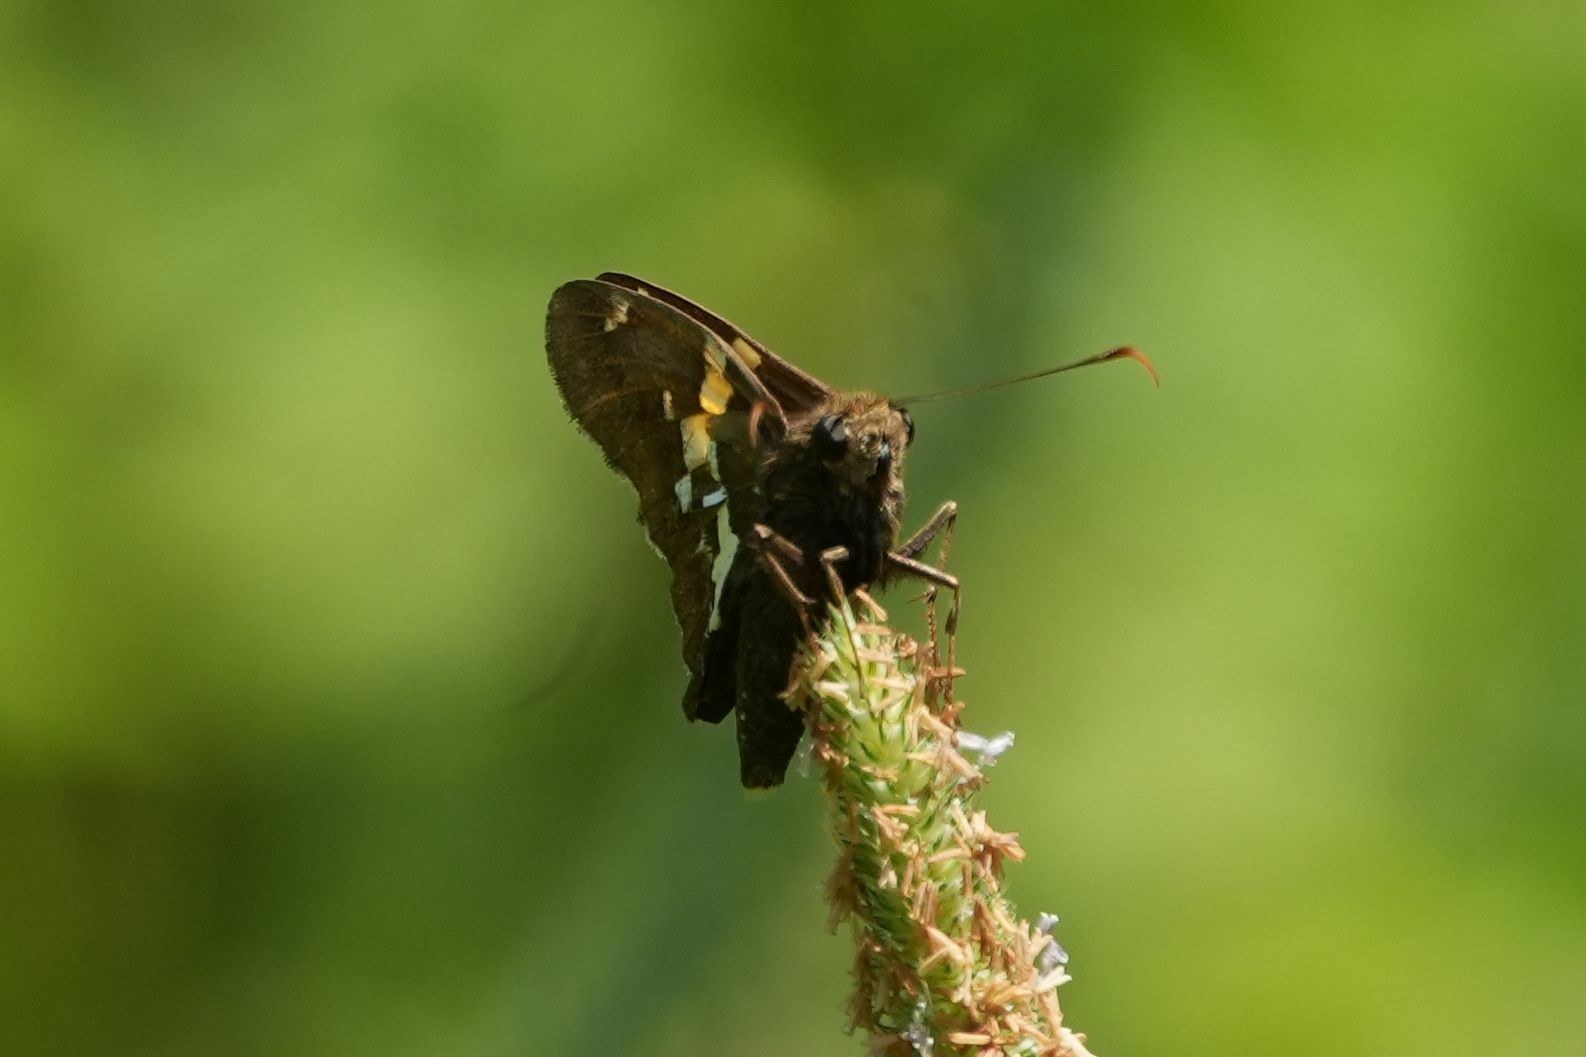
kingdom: Animalia
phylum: Arthropoda
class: Insecta
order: Lepidoptera
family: Hesperiidae
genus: Epargyreus
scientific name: Epargyreus clarus
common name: Silver-spotted skipper
